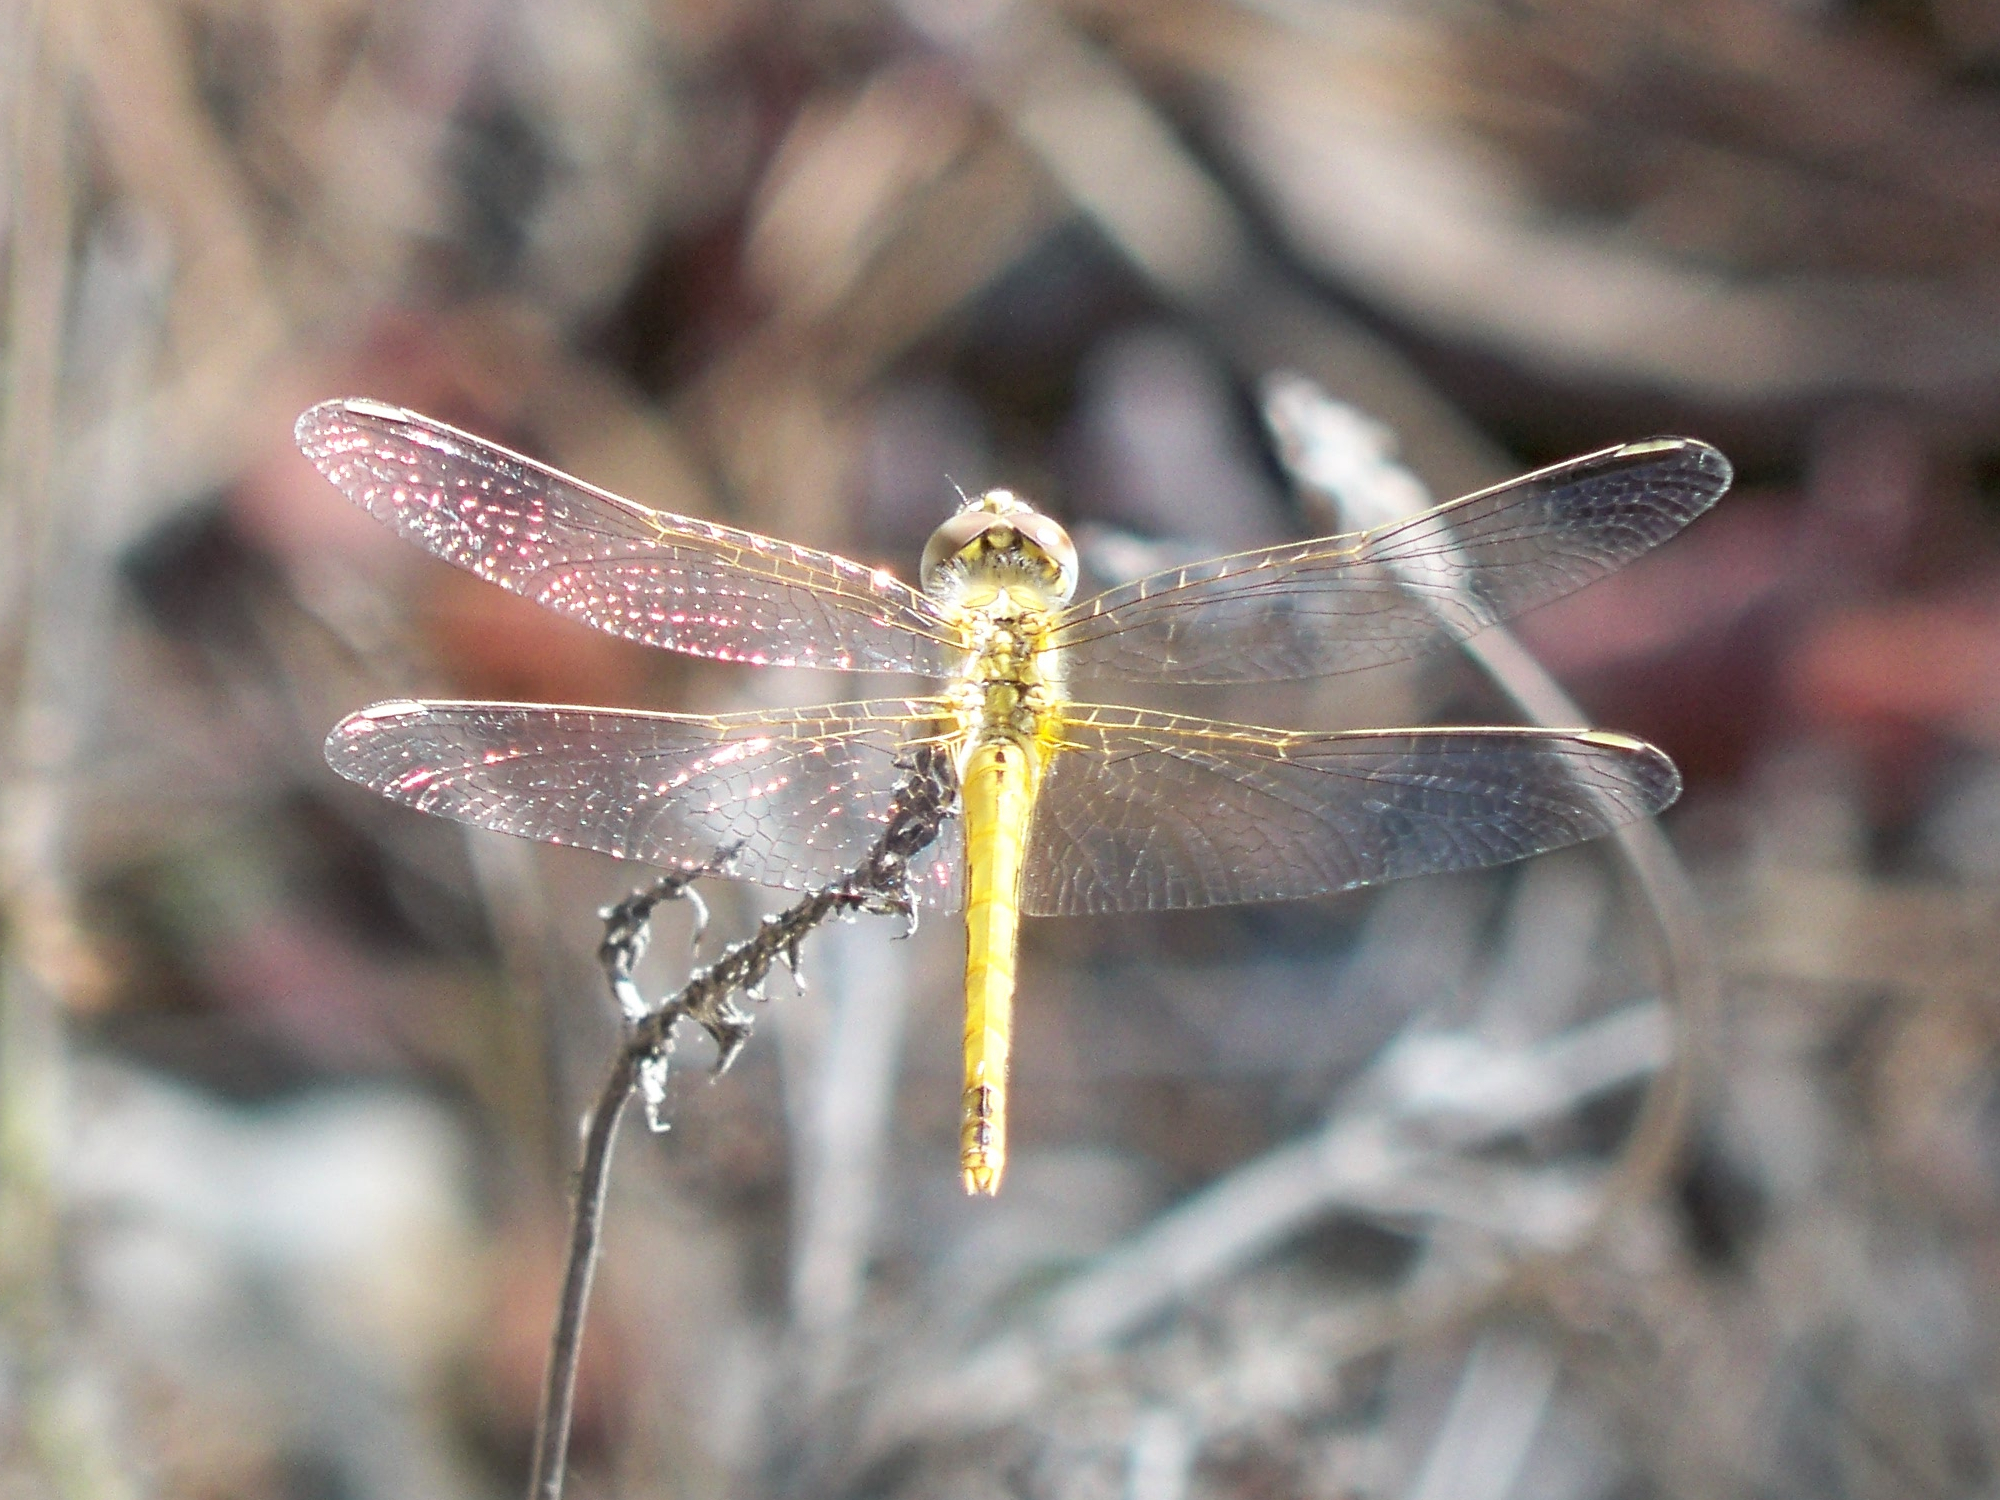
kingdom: Animalia
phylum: Arthropoda
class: Insecta
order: Odonata
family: Libellulidae
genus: Sympetrum
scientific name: Sympetrum fonscolombii
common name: Red-veined darter
